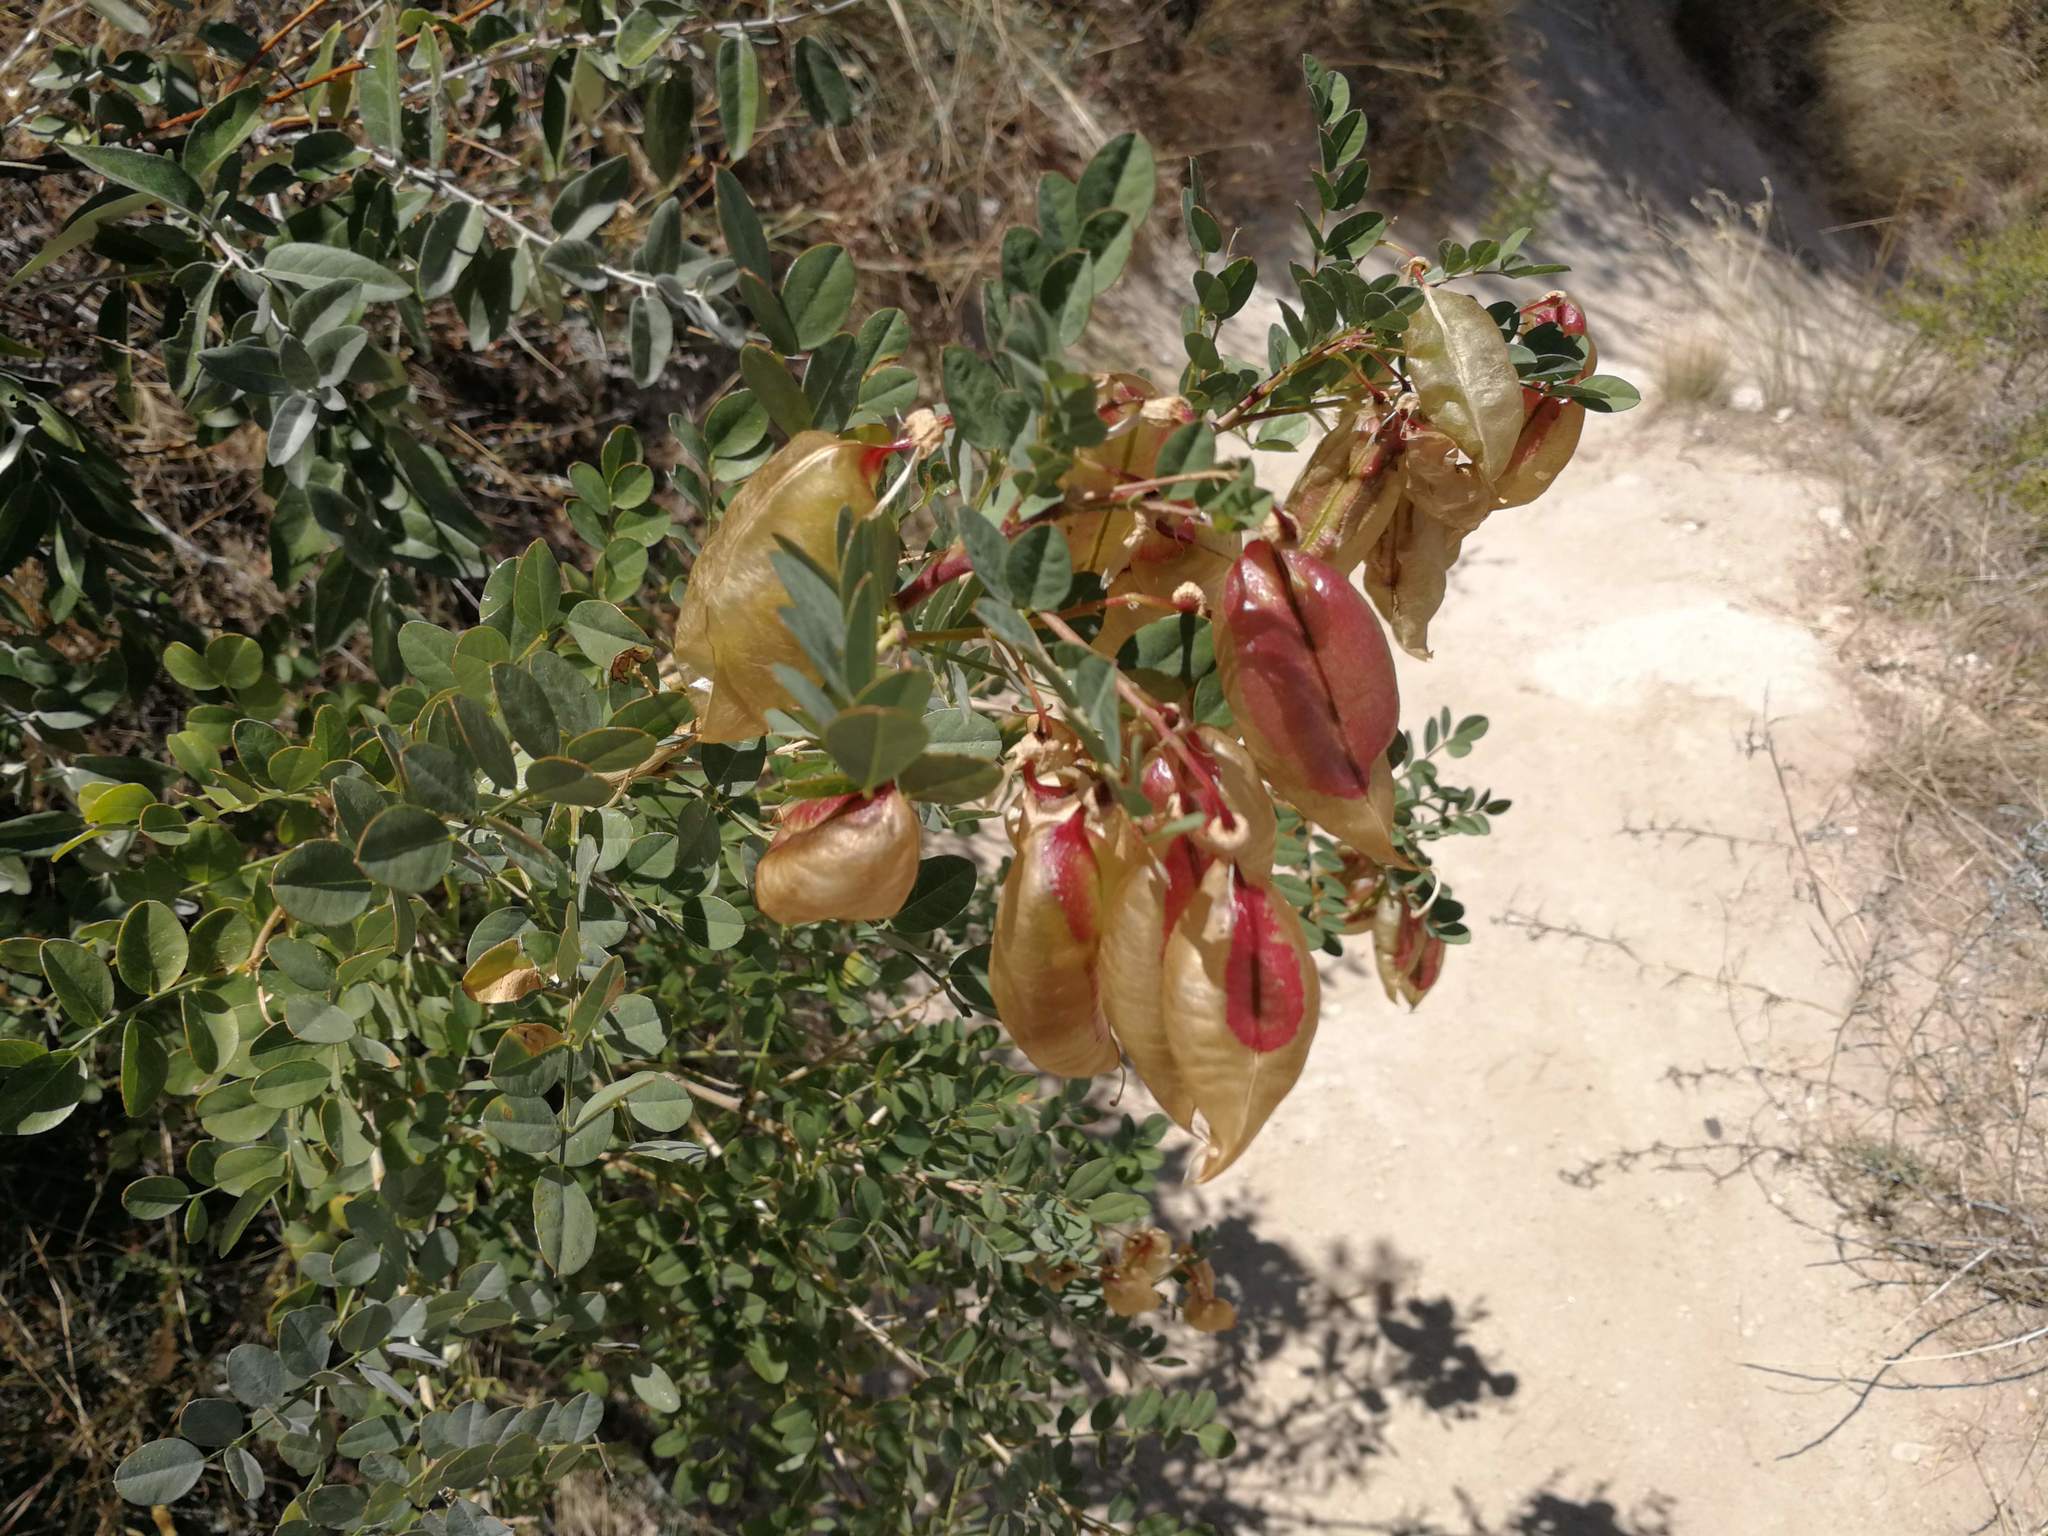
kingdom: Plantae
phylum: Tracheophyta
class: Magnoliopsida
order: Fabales
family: Fabaceae
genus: Colutea
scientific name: Colutea cilicica
